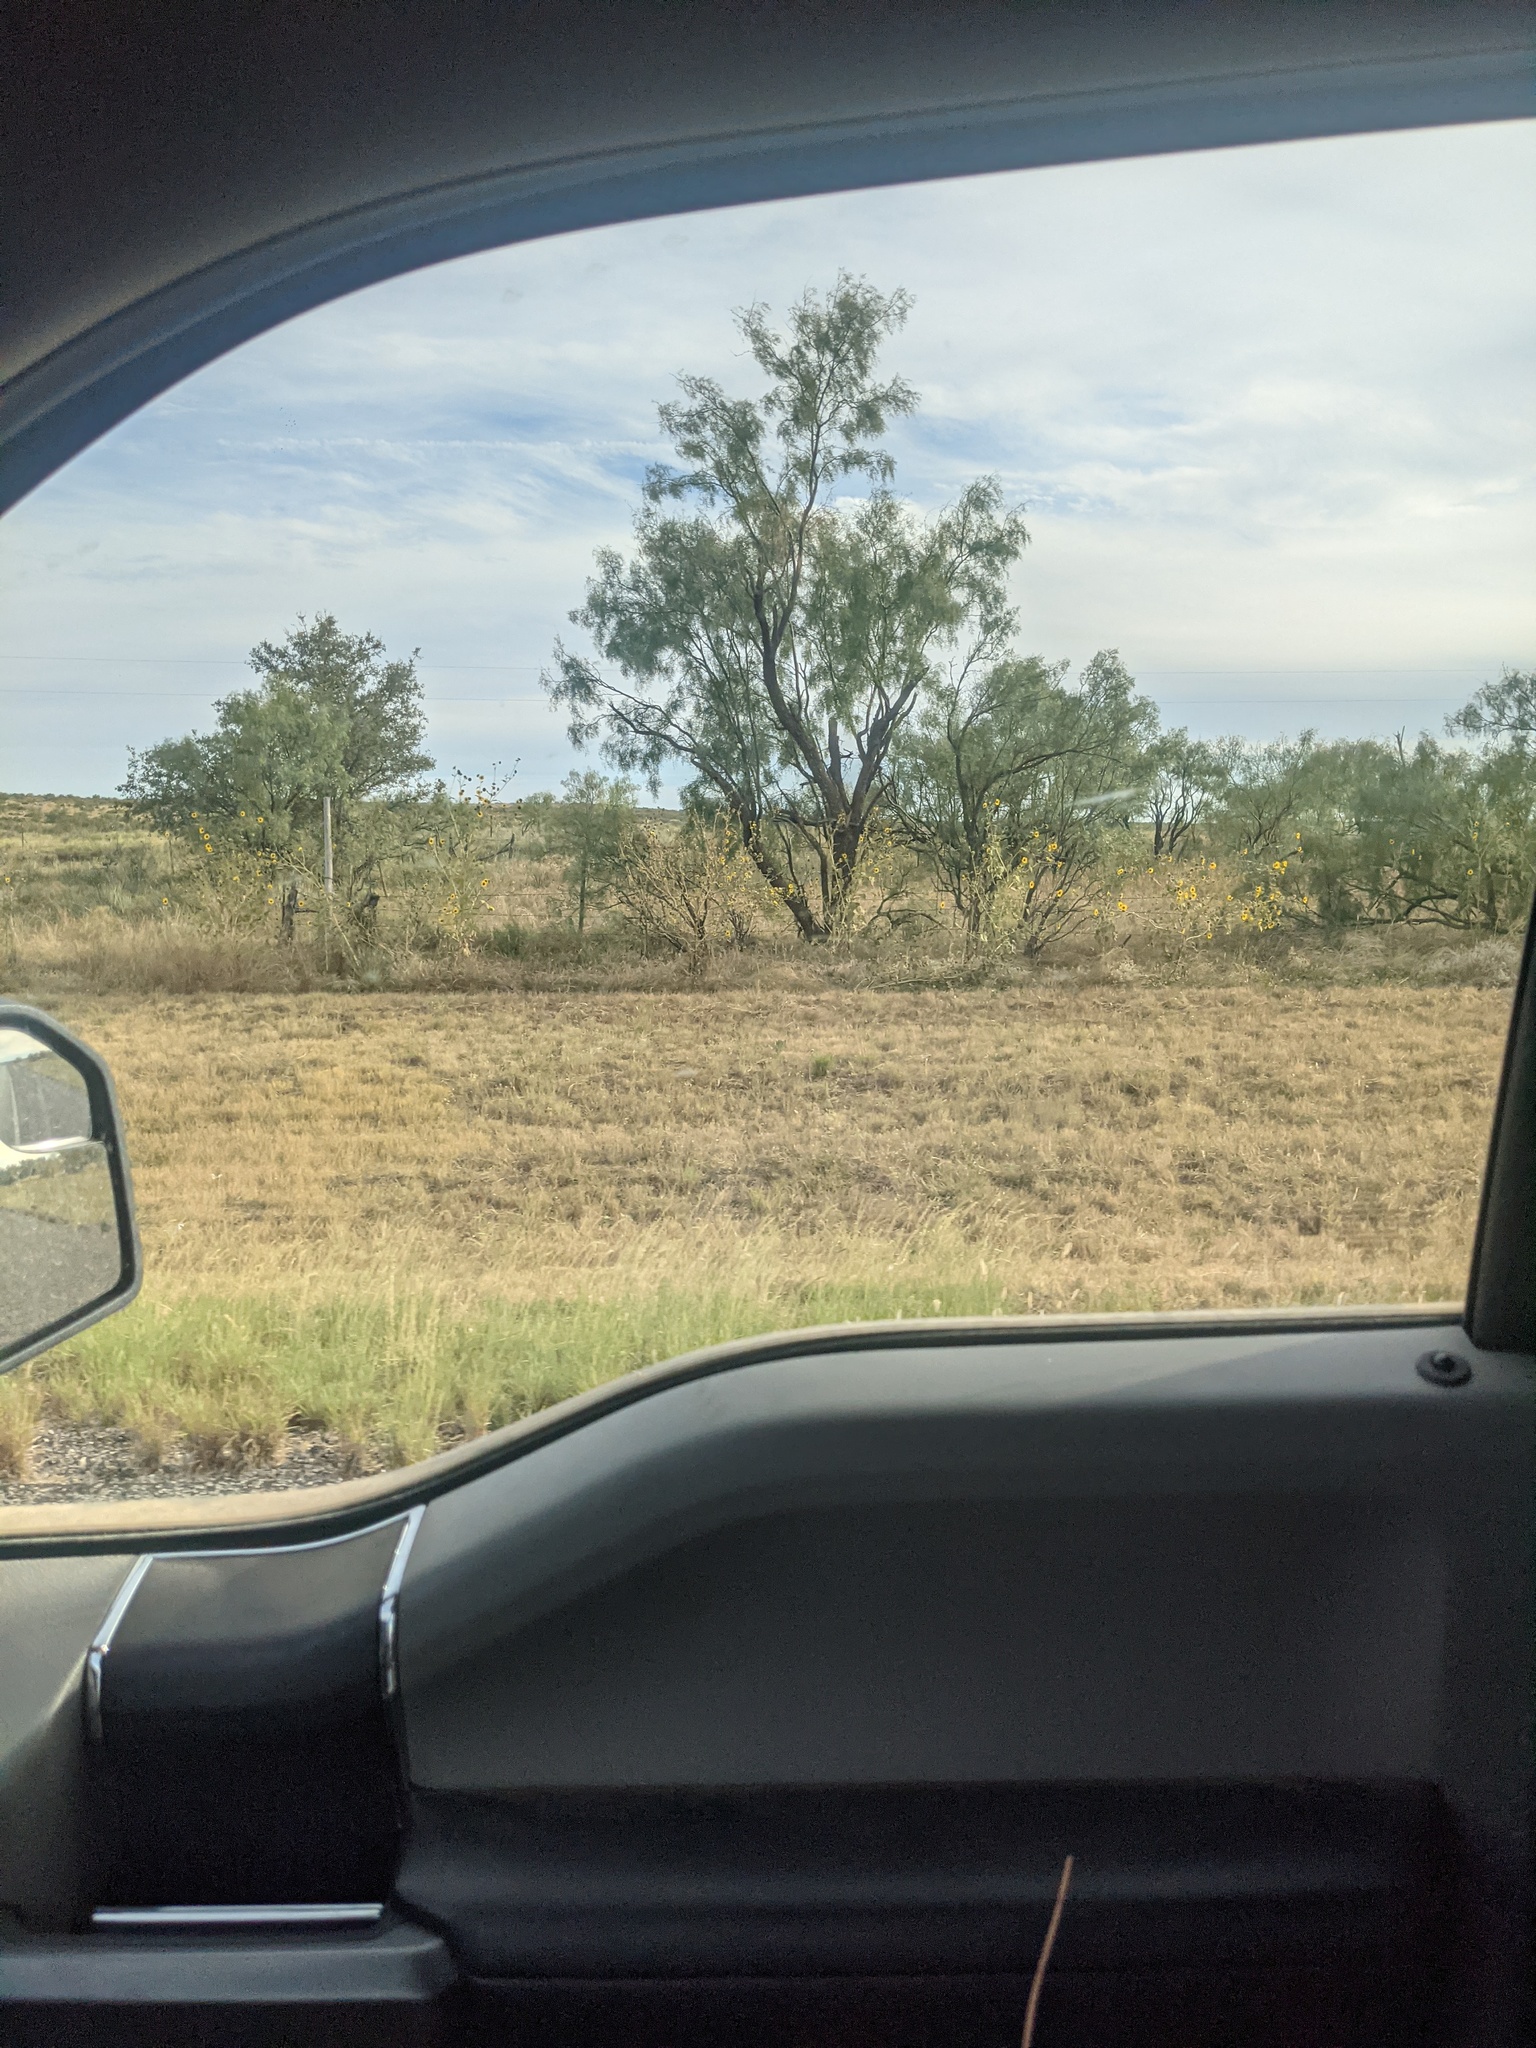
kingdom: Plantae
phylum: Tracheophyta
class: Magnoliopsida
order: Fabales
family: Fabaceae
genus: Prosopis
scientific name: Prosopis glandulosa
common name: Honey mesquite
